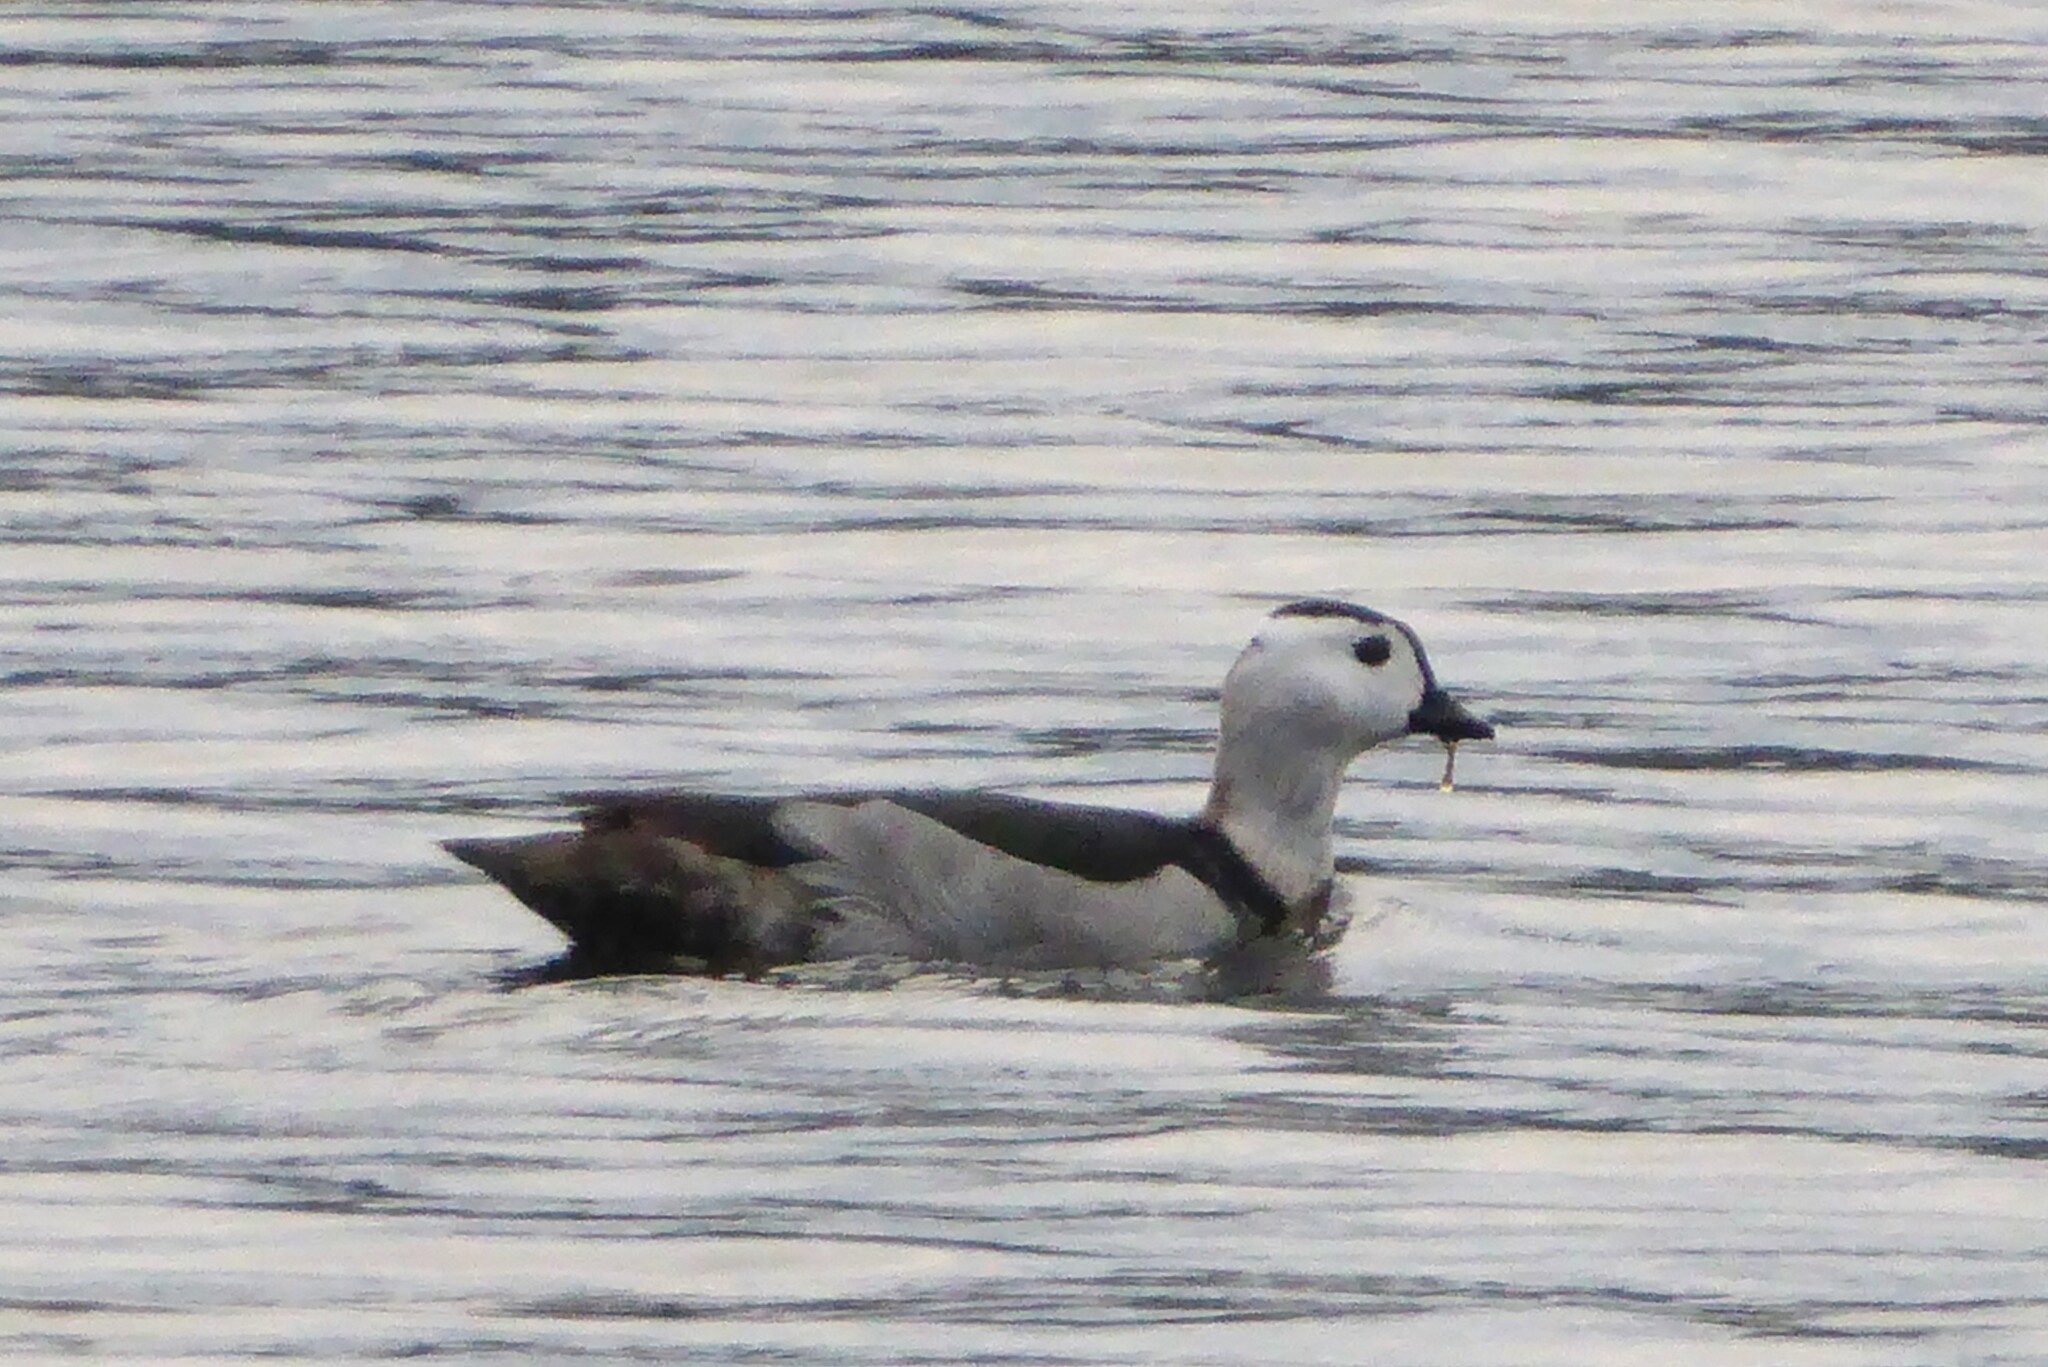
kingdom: Animalia
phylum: Chordata
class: Aves
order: Anseriformes
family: Anatidae
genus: Nettapus
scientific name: Nettapus coromandelianus
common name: Cotton pygmy-goose
